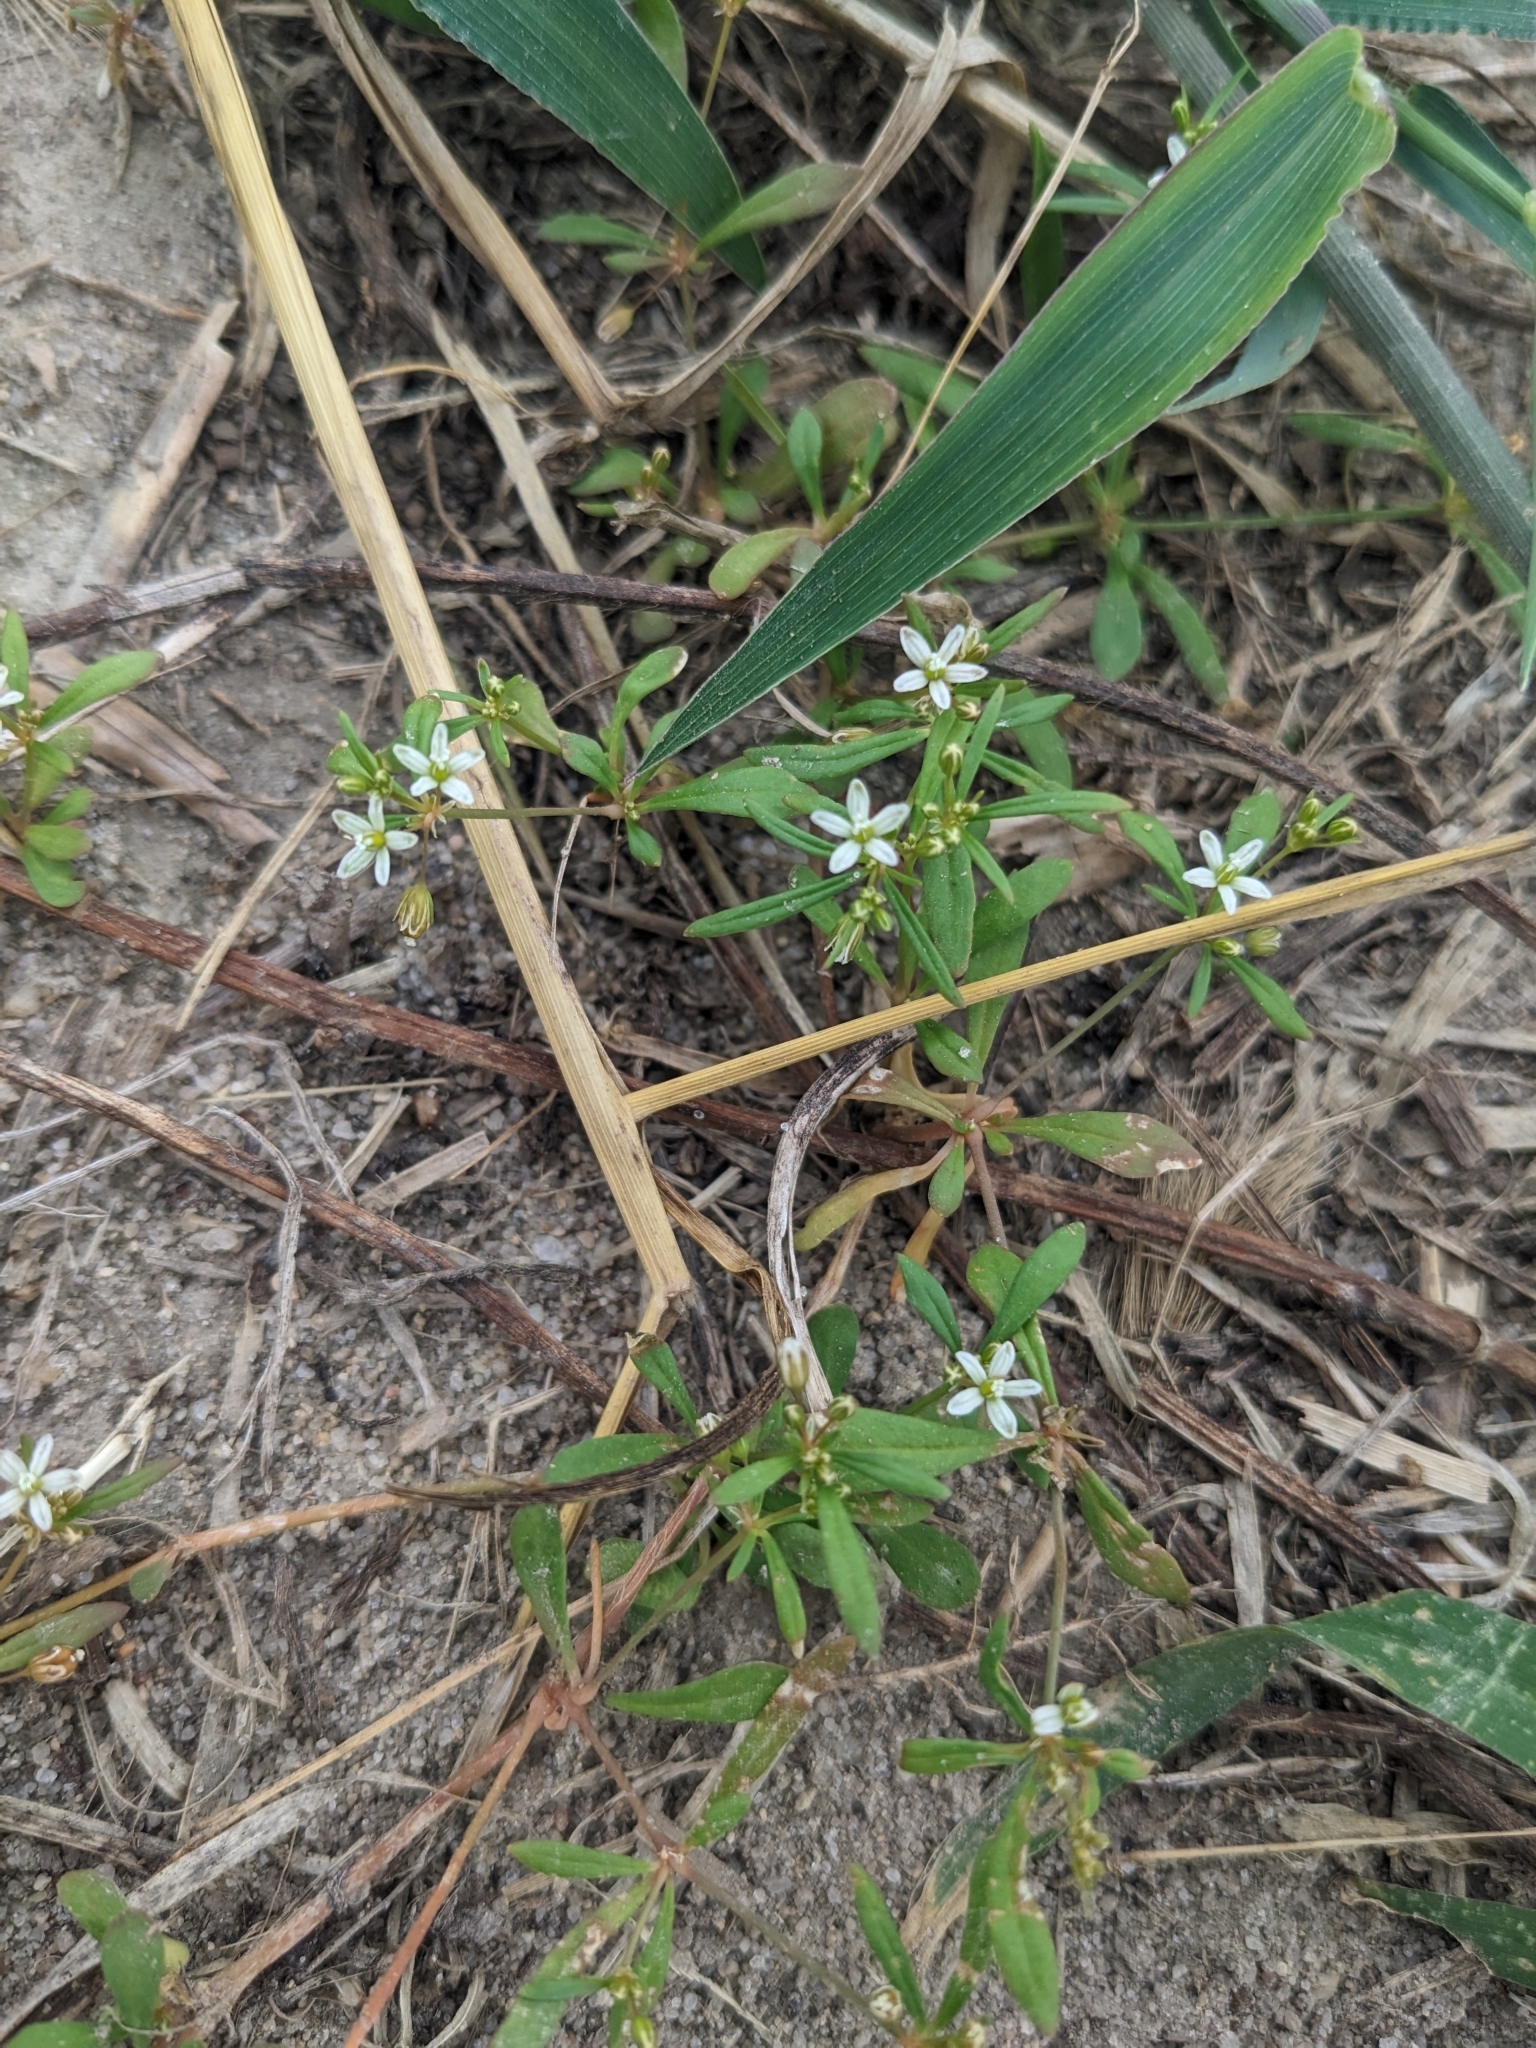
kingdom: Plantae
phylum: Tracheophyta
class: Magnoliopsida
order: Caryophyllales
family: Molluginaceae
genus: Mollugo
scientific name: Mollugo verticillata
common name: Green carpetweed
